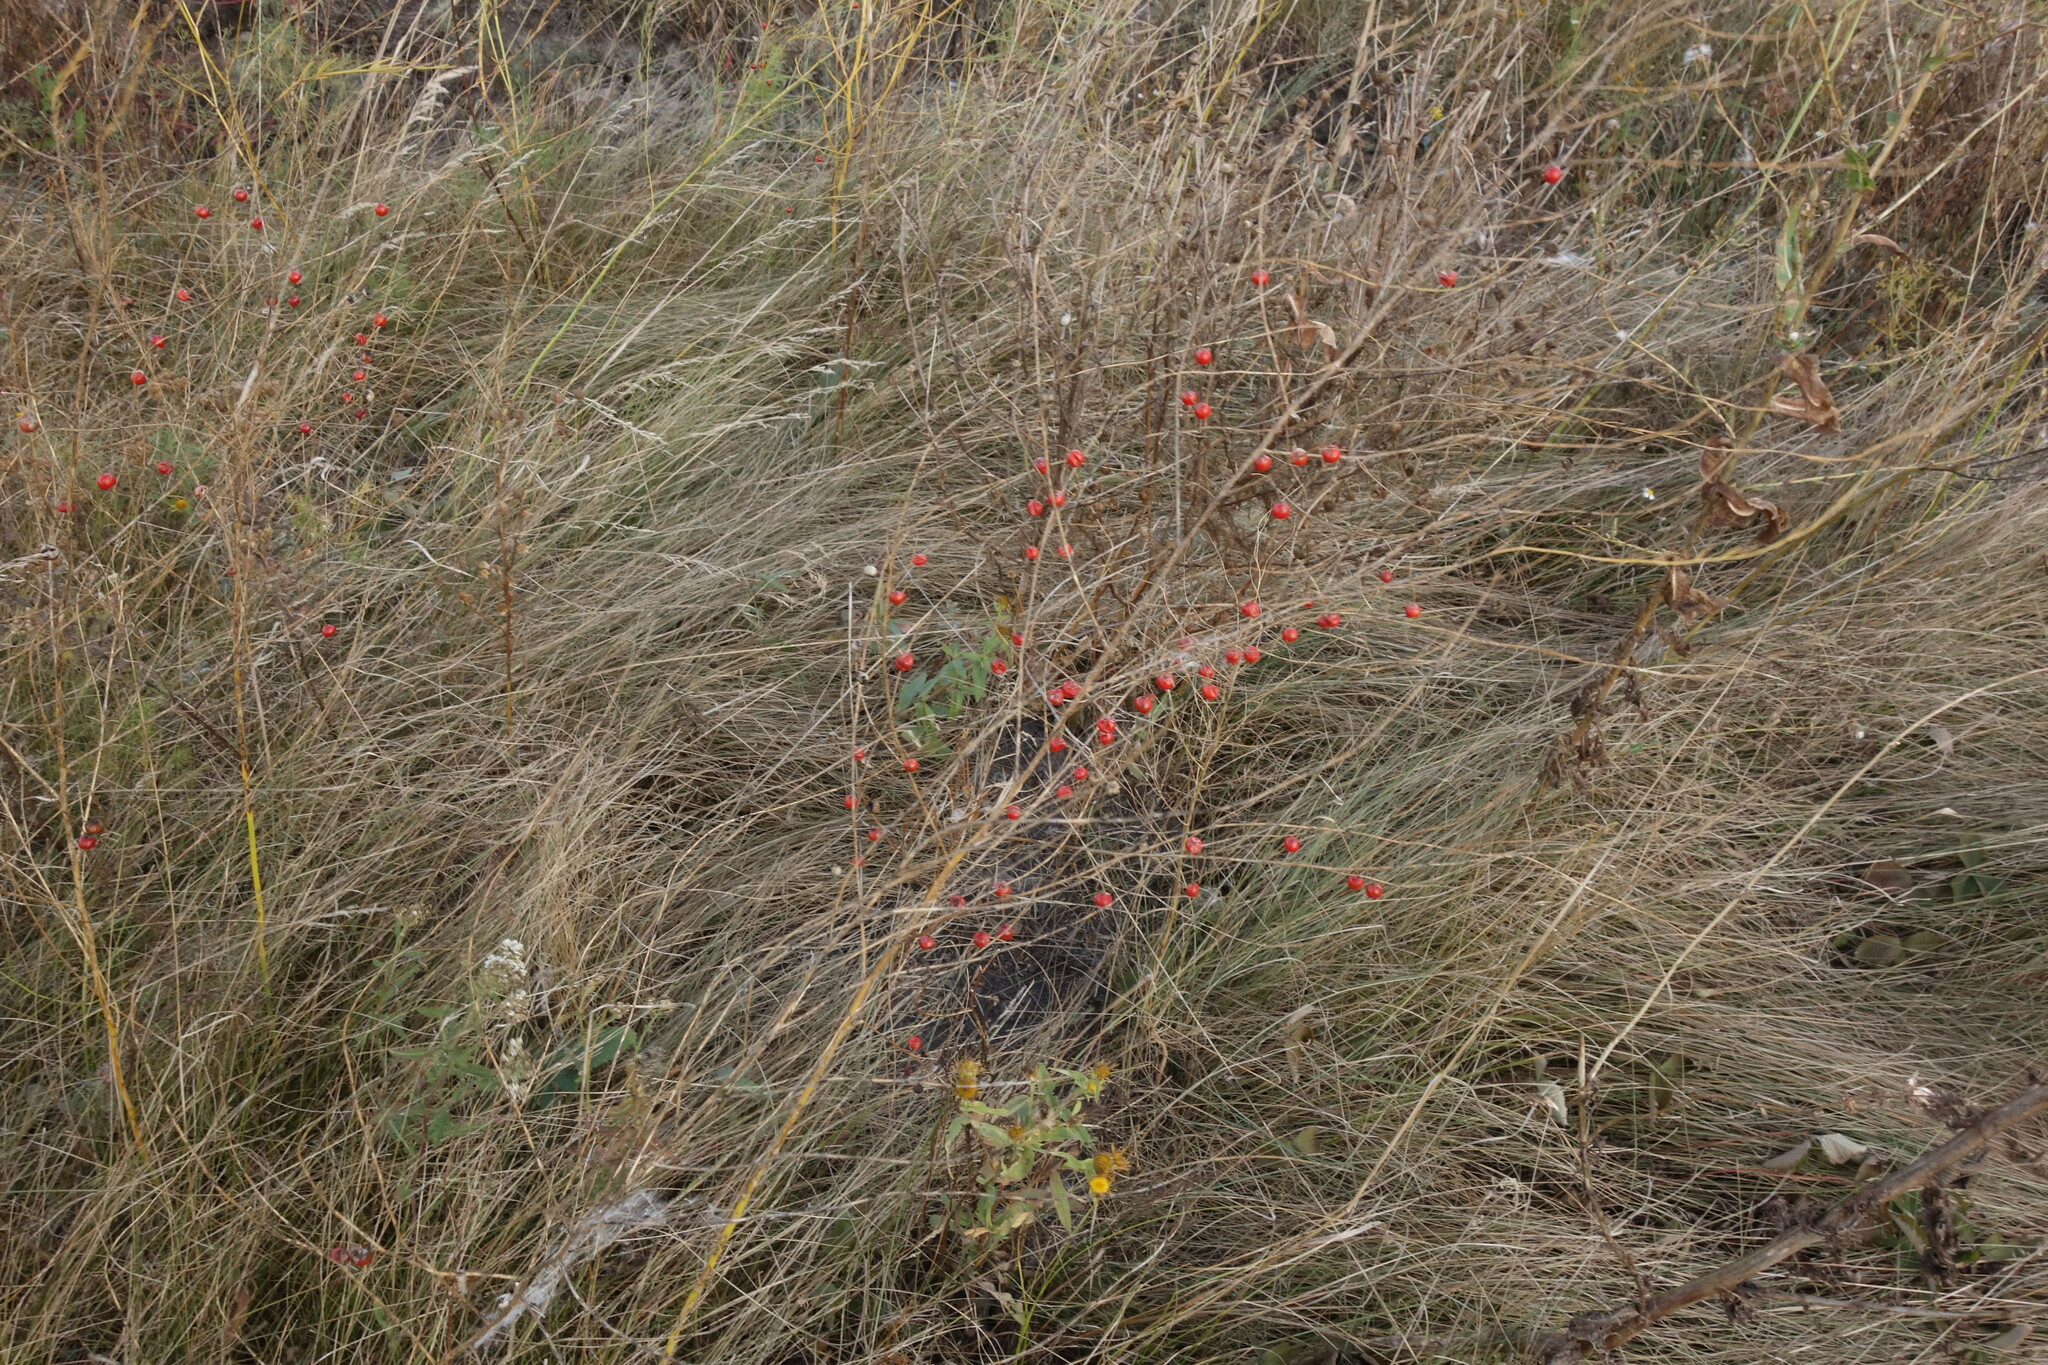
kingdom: Plantae
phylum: Tracheophyta
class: Liliopsida
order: Asparagales
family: Asparagaceae
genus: Asparagus
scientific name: Asparagus officinalis
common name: Garden asparagus
